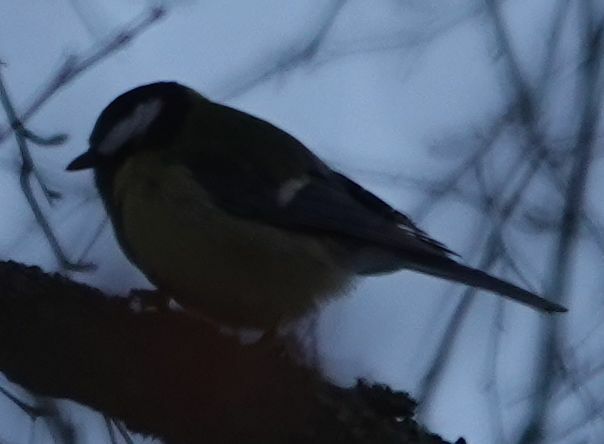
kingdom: Animalia
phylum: Chordata
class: Aves
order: Passeriformes
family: Paridae
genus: Parus
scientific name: Parus major
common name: Great tit
